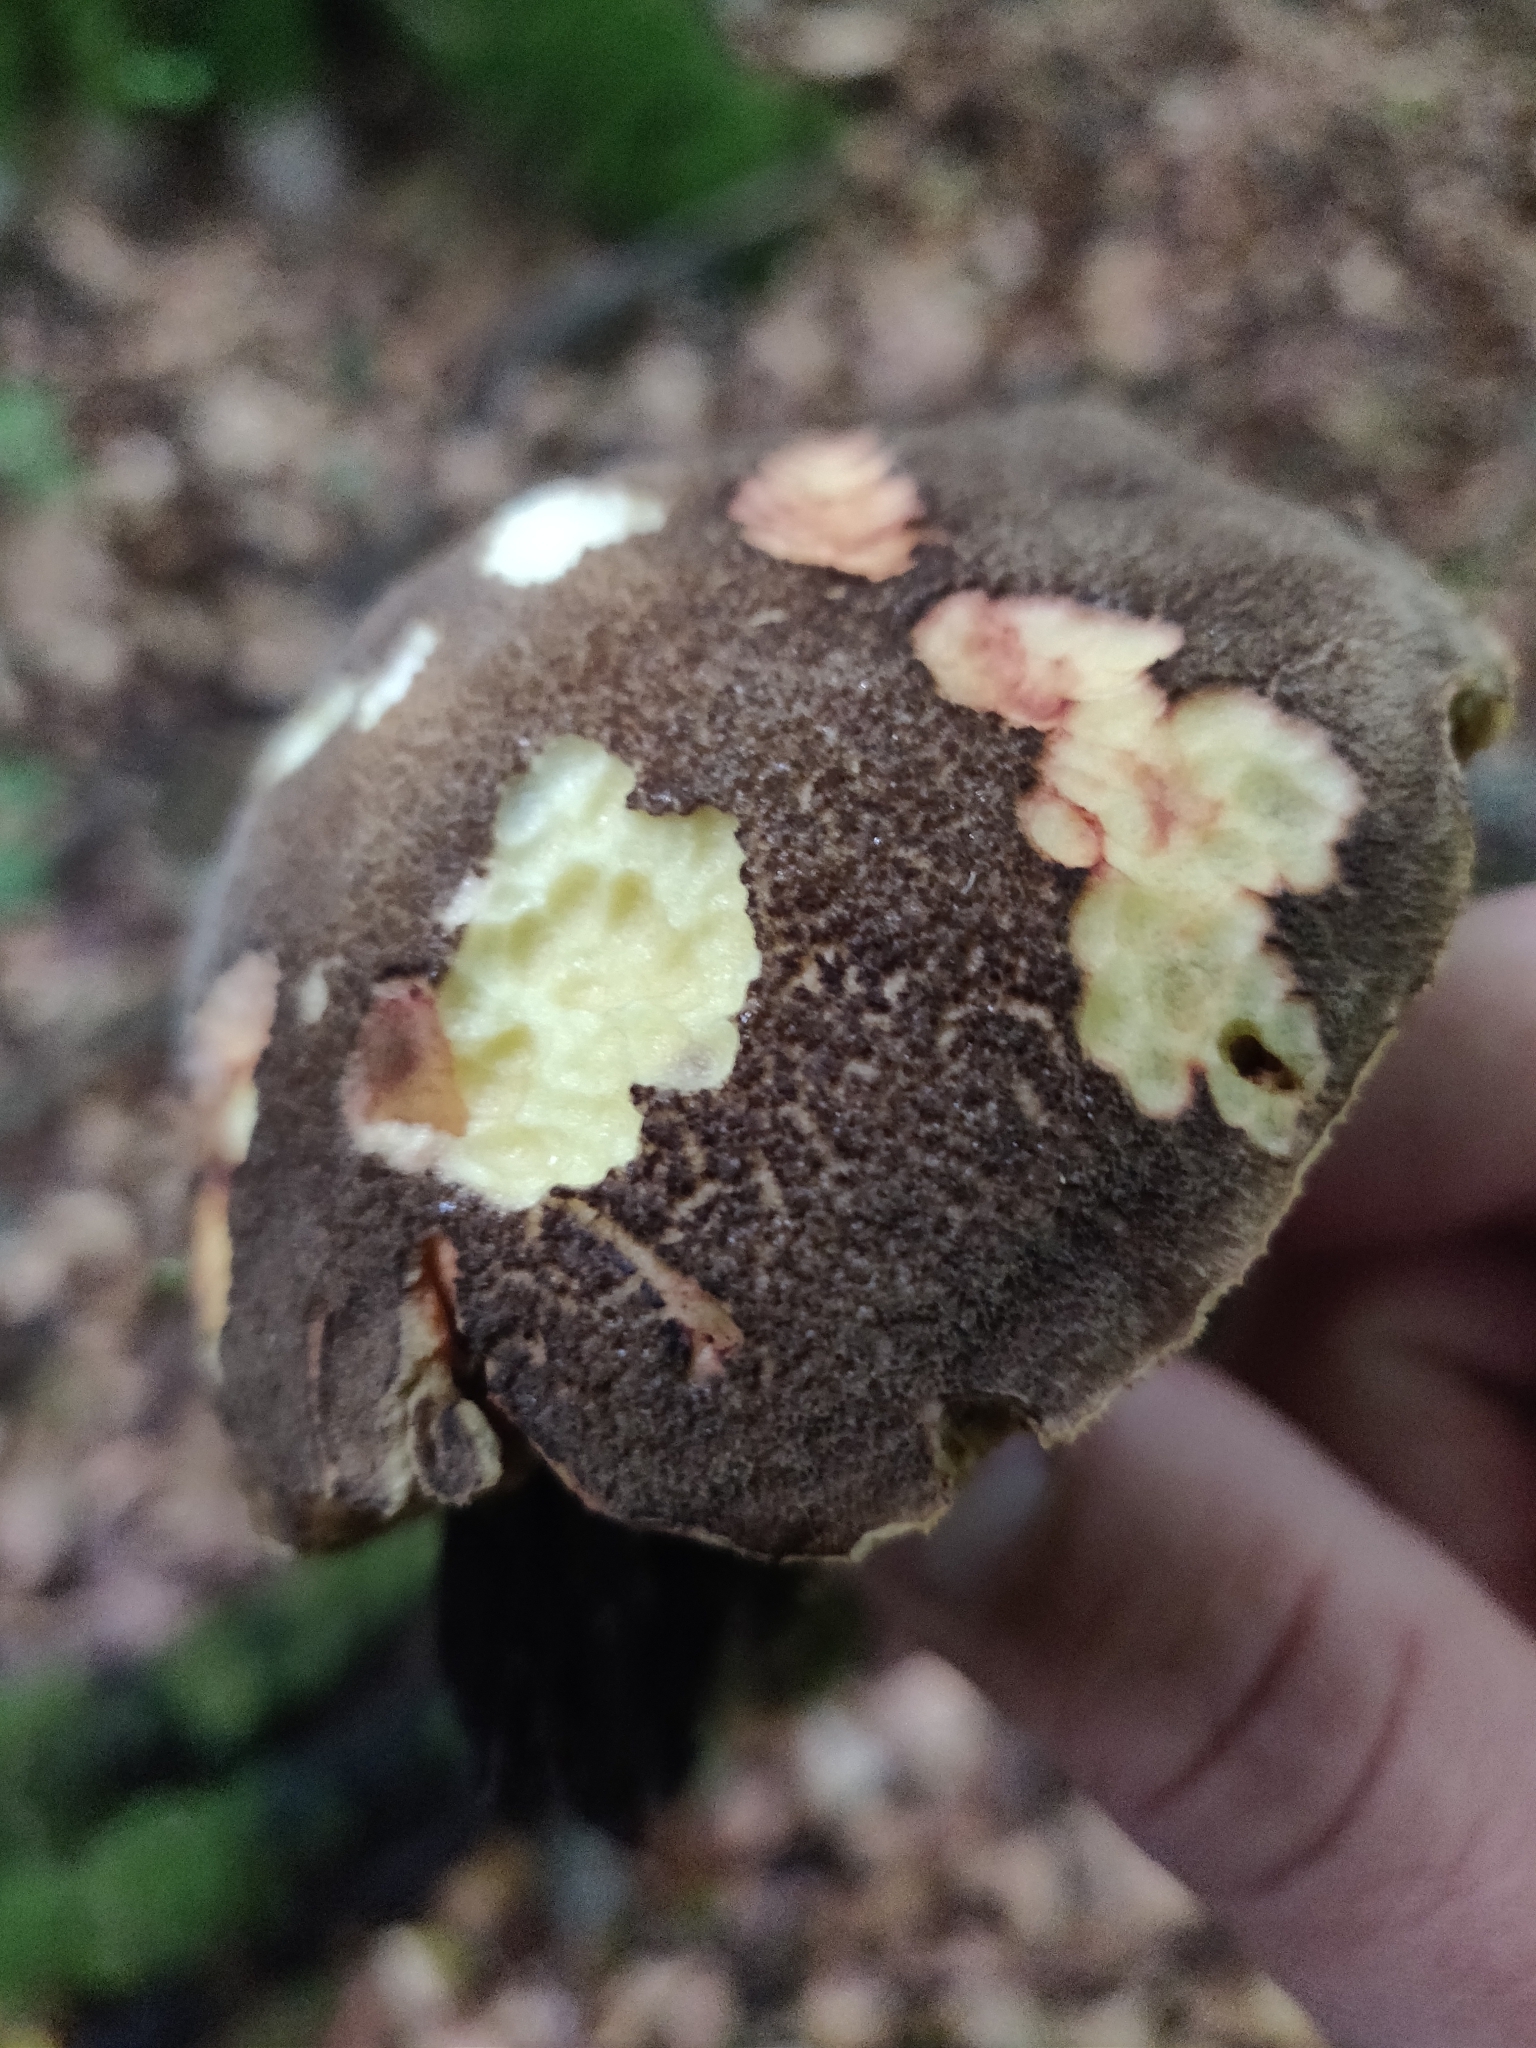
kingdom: Fungi
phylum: Basidiomycota
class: Agaricomycetes
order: Boletales
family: Boletaceae
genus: Xerocomellus
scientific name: Xerocomellus chrysenteron
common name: Red-cracking bolete
